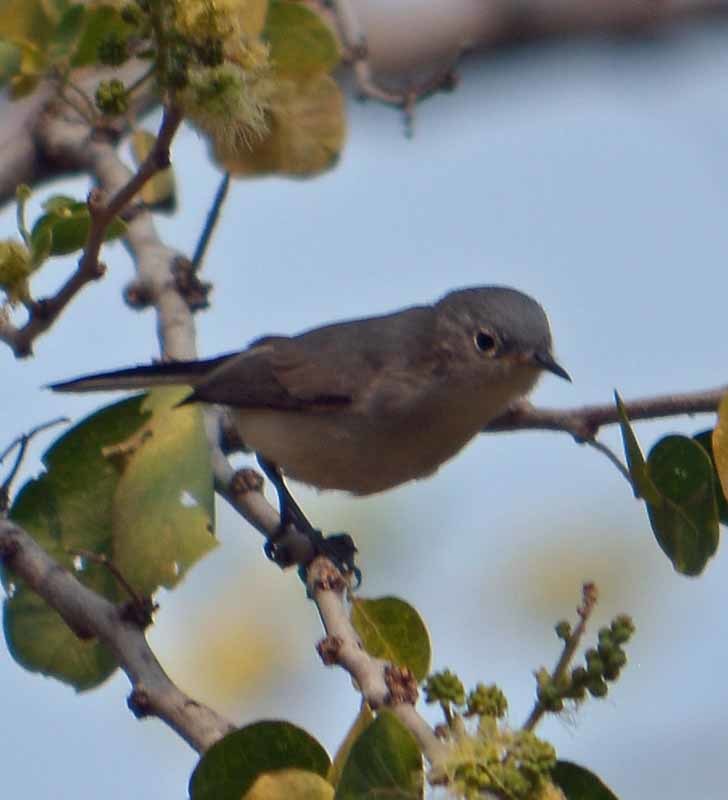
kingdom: Animalia
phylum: Chordata
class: Aves
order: Passeriformes
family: Polioptilidae
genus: Polioptila
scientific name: Polioptila caerulea
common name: Blue-gray gnatcatcher
